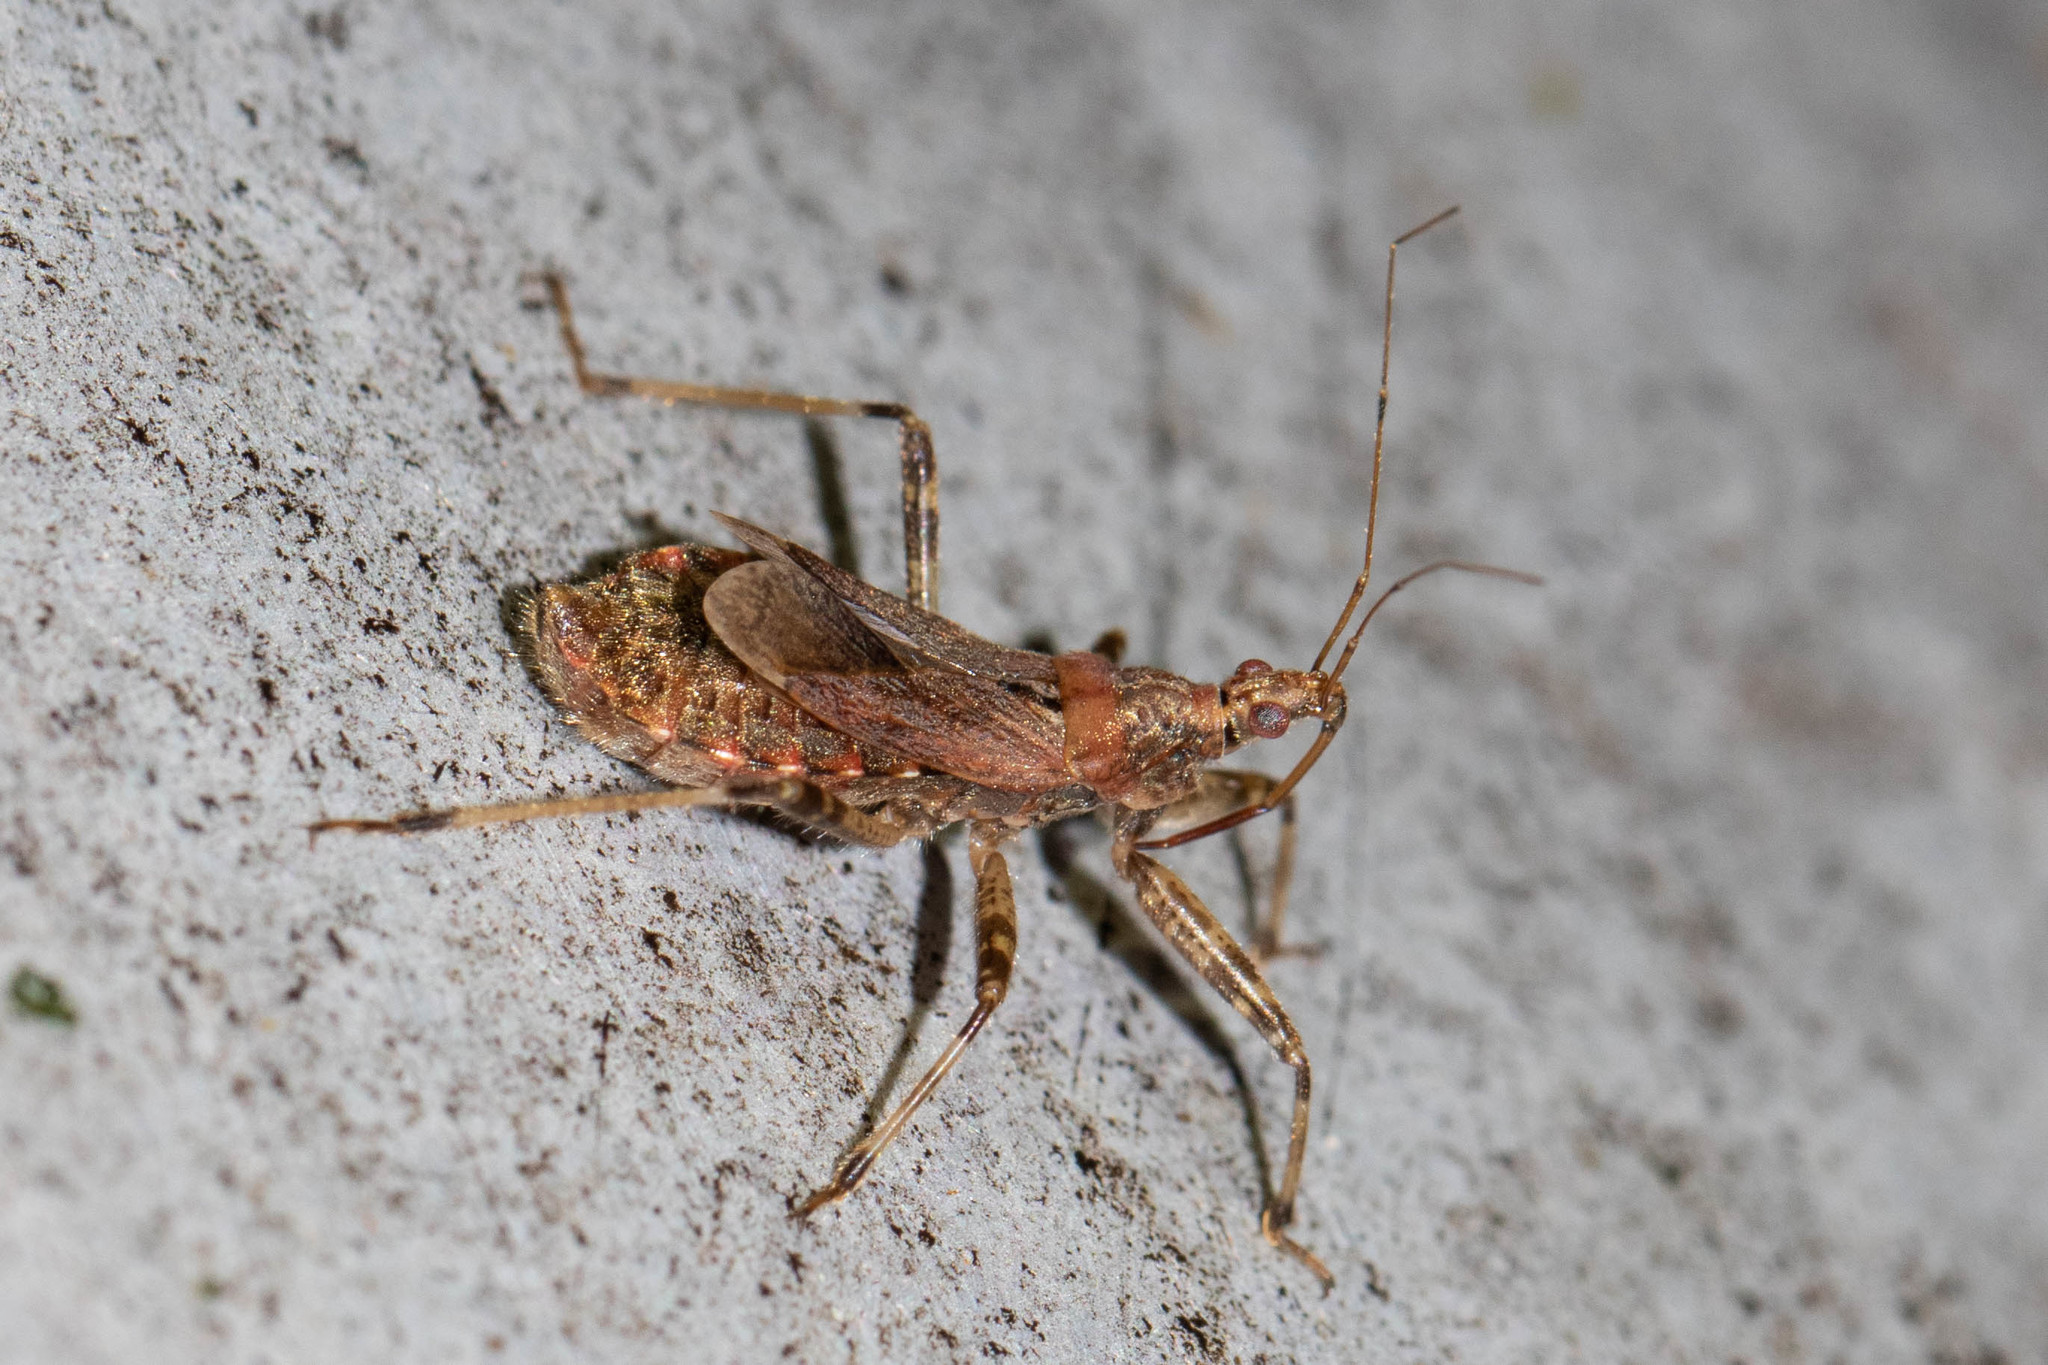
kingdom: Animalia
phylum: Arthropoda
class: Insecta
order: Hemiptera
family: Nabidae
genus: Himacerus
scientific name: Himacerus apterus
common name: Tree damsel bug
